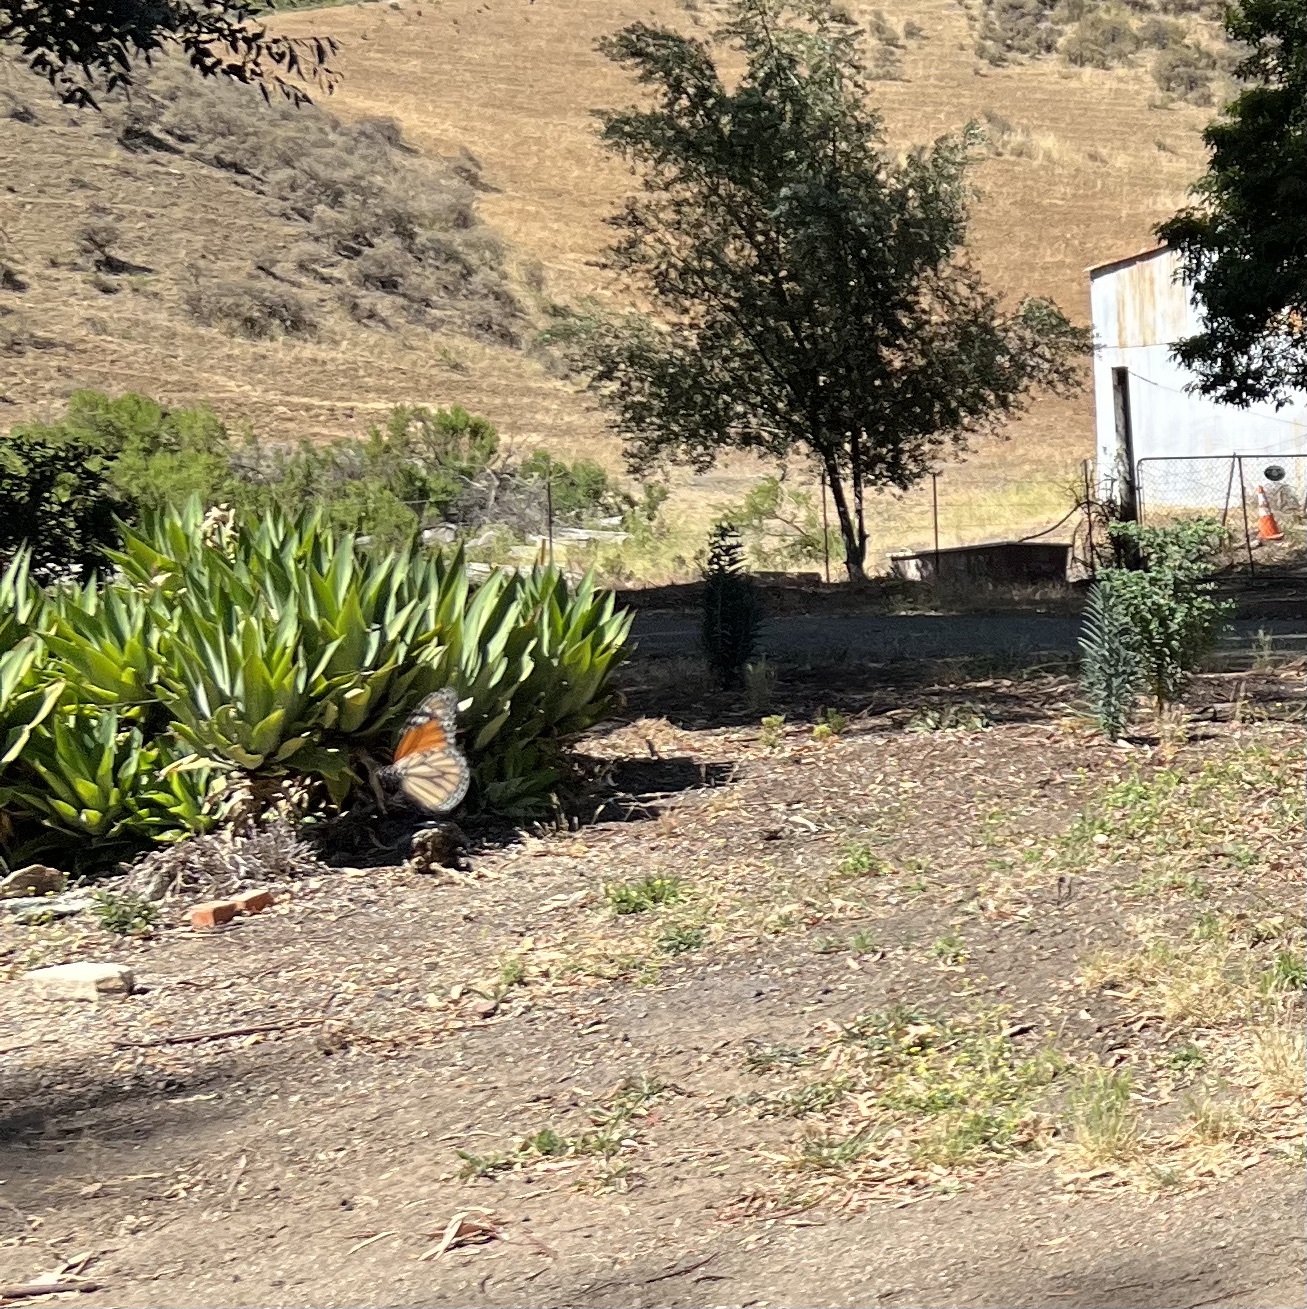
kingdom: Animalia
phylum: Arthropoda
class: Insecta
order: Lepidoptera
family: Nymphalidae
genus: Danaus
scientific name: Danaus plexippus
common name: Monarch
